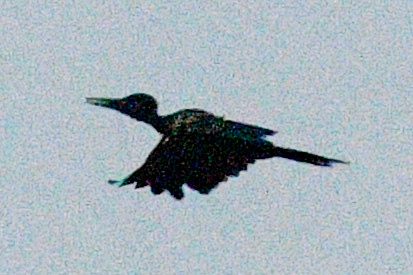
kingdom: Animalia
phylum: Chordata
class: Aves
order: Piciformes
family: Picidae
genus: Dryocopus
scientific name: Dryocopus javensis
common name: White-bellied woodpecker
